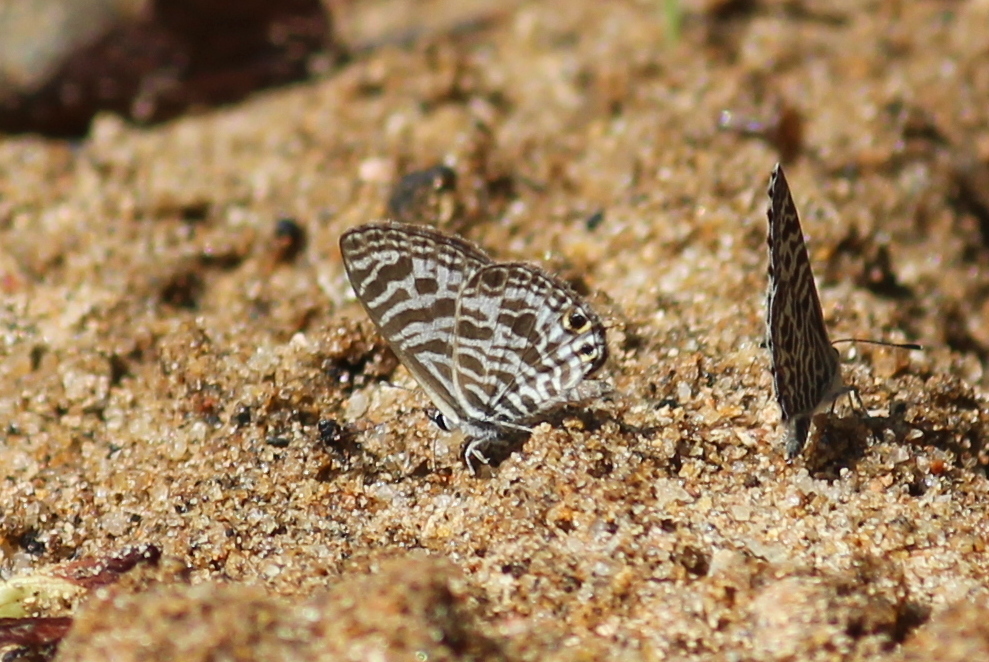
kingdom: Animalia
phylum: Arthropoda
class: Insecta
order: Lepidoptera
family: Lycaenidae
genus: Leptotes
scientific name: Leptotes plinius
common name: Zebra blue
